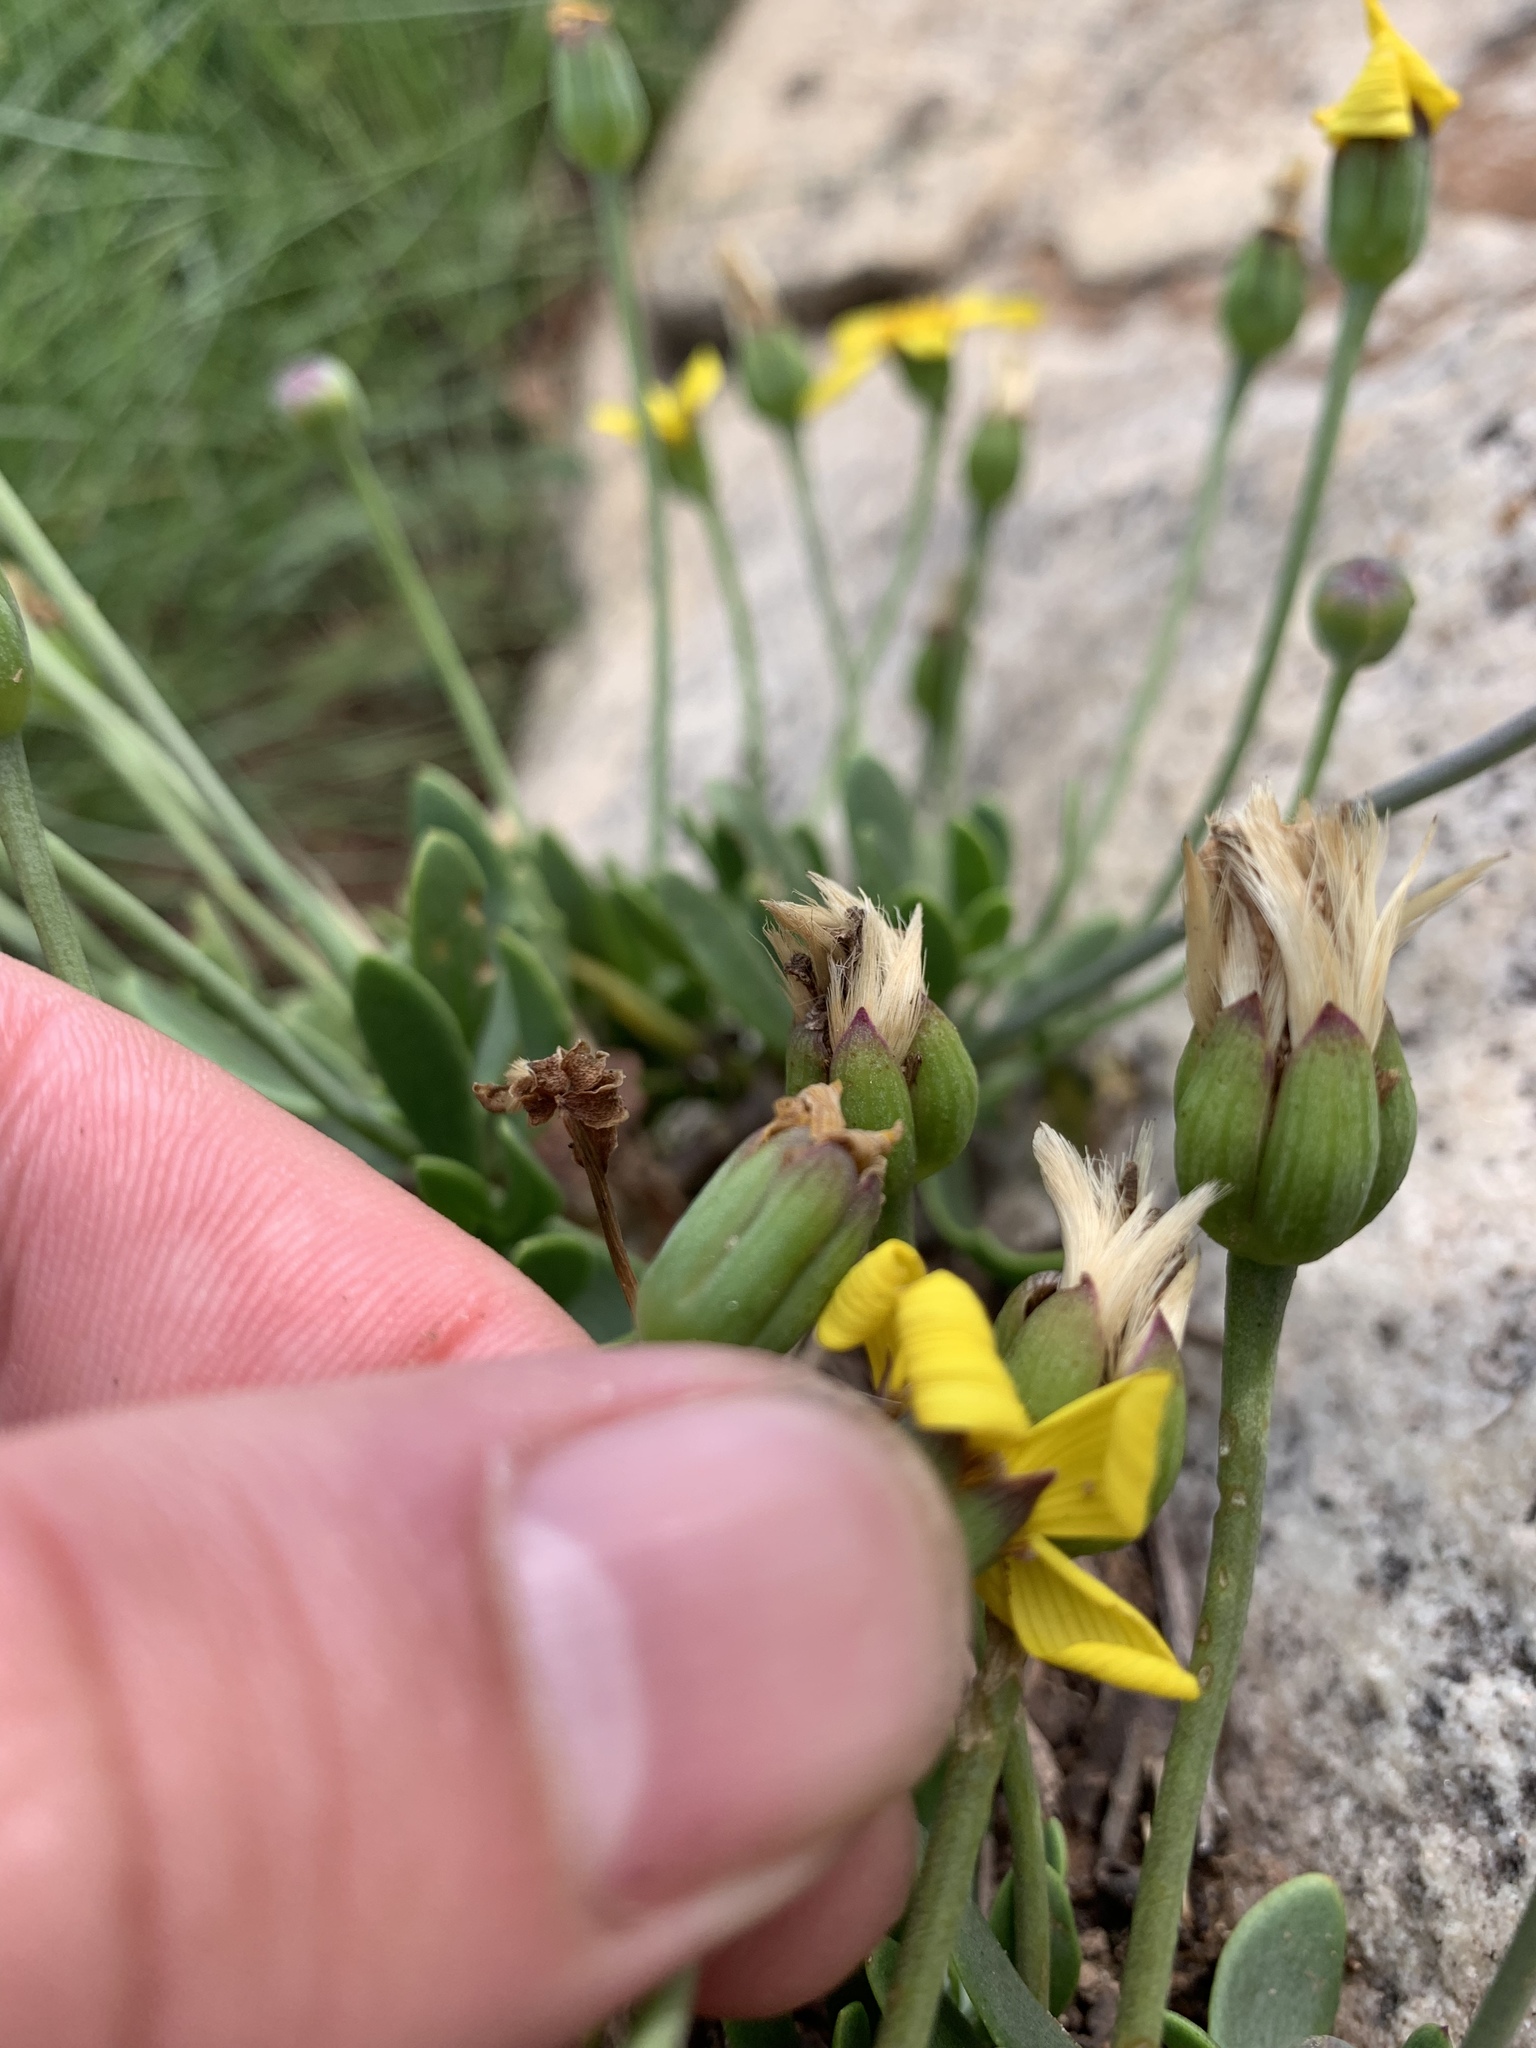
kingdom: Plantae
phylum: Tracheophyta
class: Magnoliopsida
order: Asterales
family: Asteraceae
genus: Othonna
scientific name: Othonna arborescens
